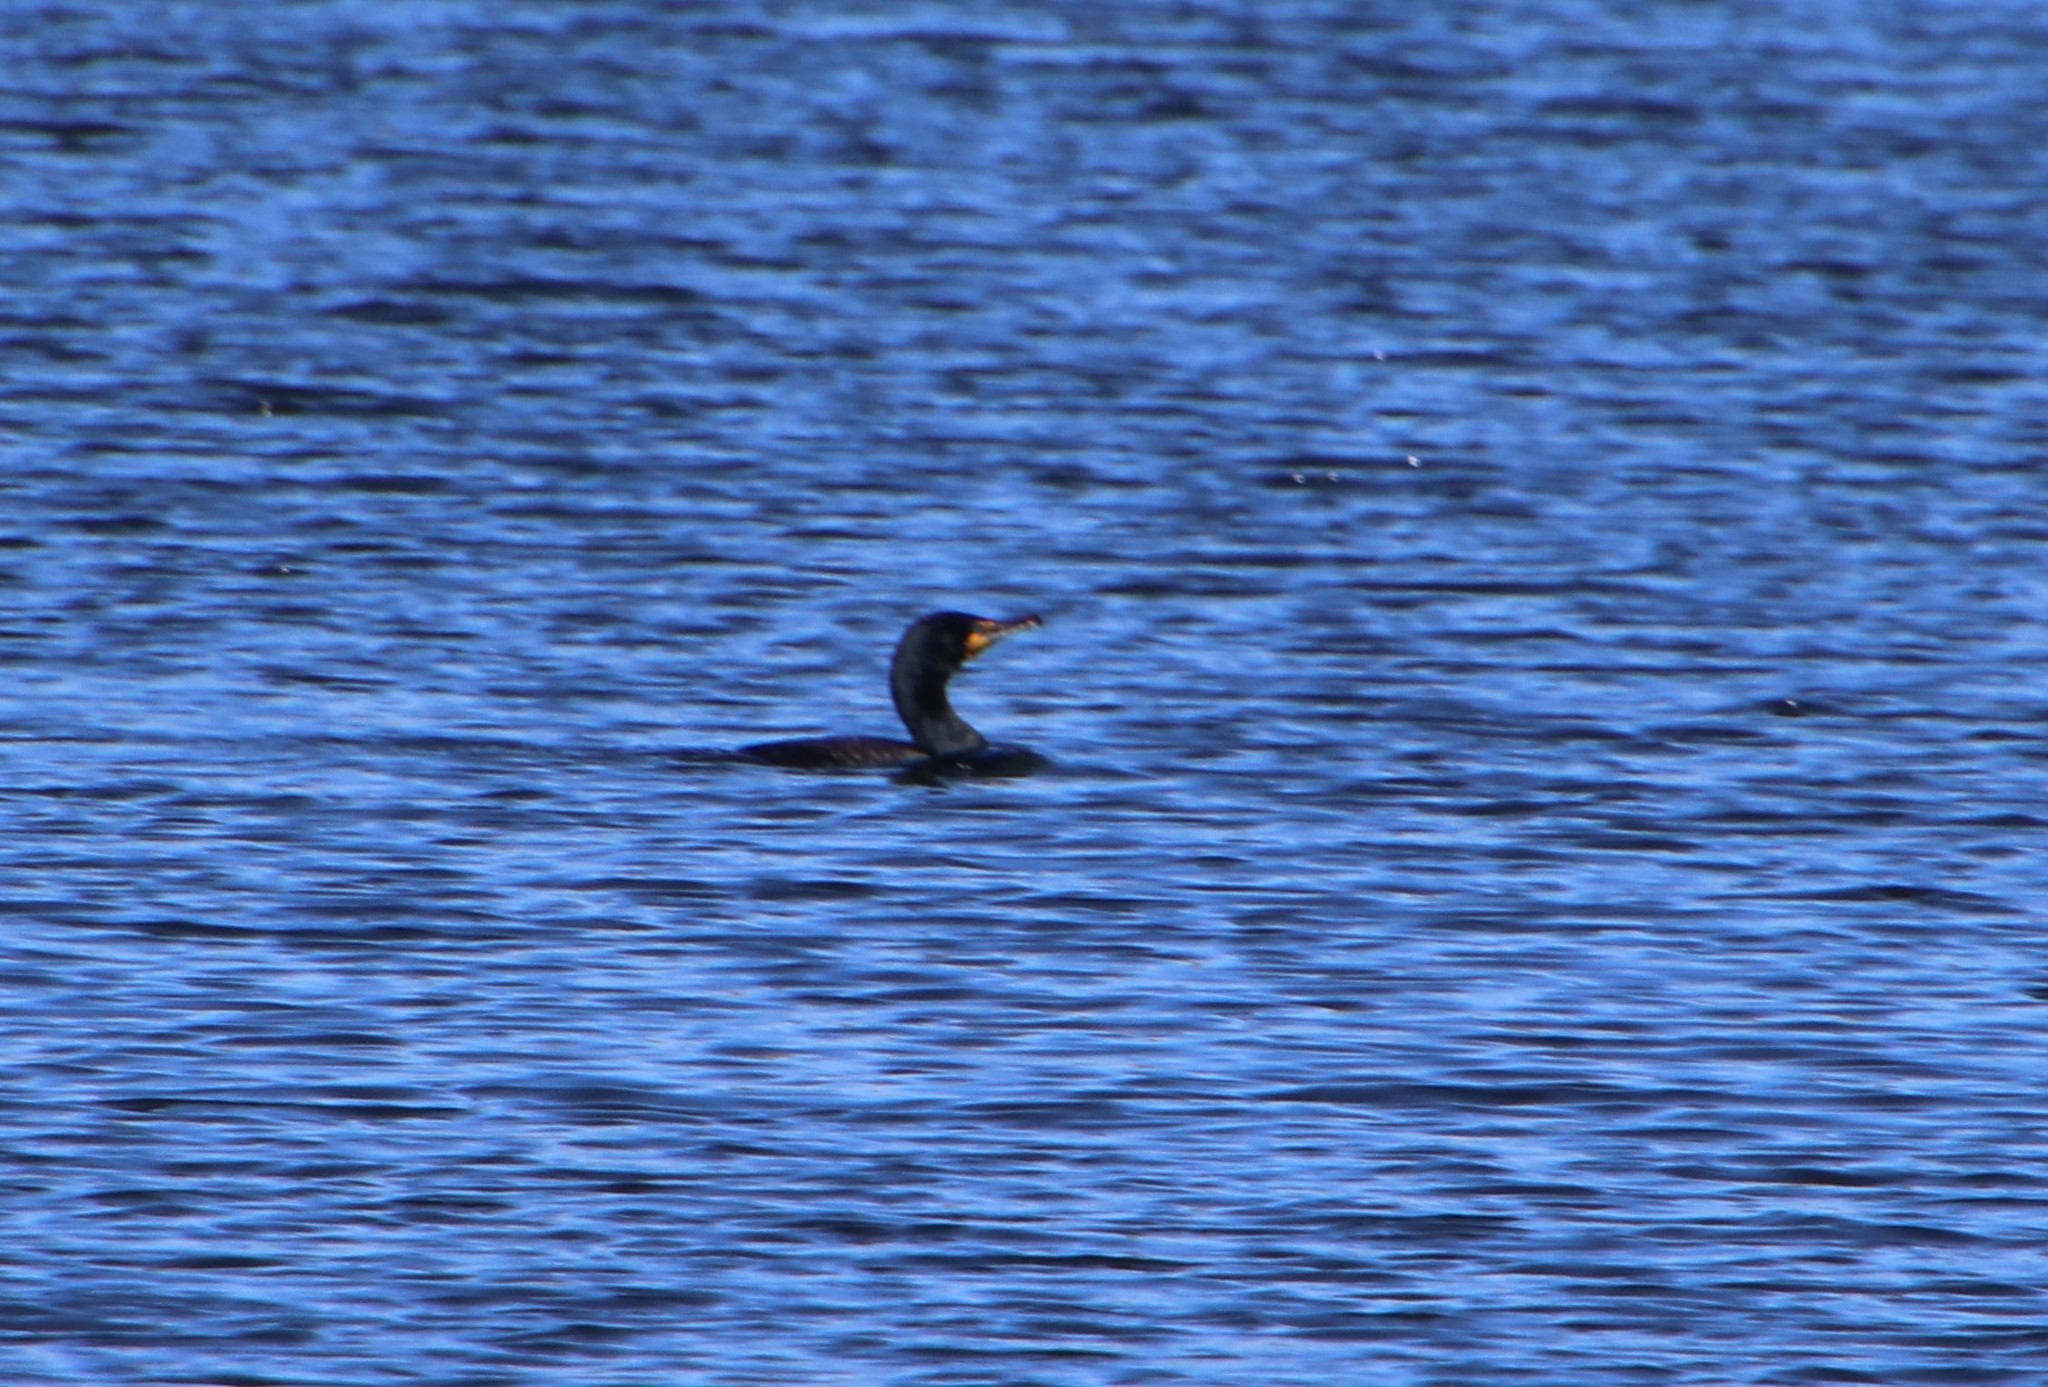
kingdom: Animalia
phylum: Chordata
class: Aves
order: Suliformes
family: Phalacrocoracidae
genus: Phalacrocorax
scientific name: Phalacrocorax auritus
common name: Double-crested cormorant
